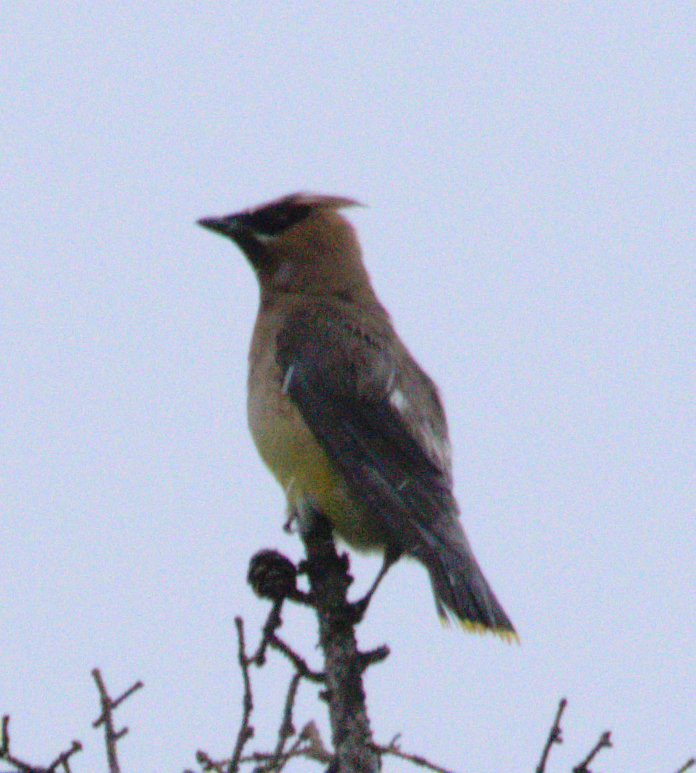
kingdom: Animalia
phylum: Chordata
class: Aves
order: Passeriformes
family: Bombycillidae
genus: Bombycilla
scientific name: Bombycilla cedrorum
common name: Cedar waxwing
